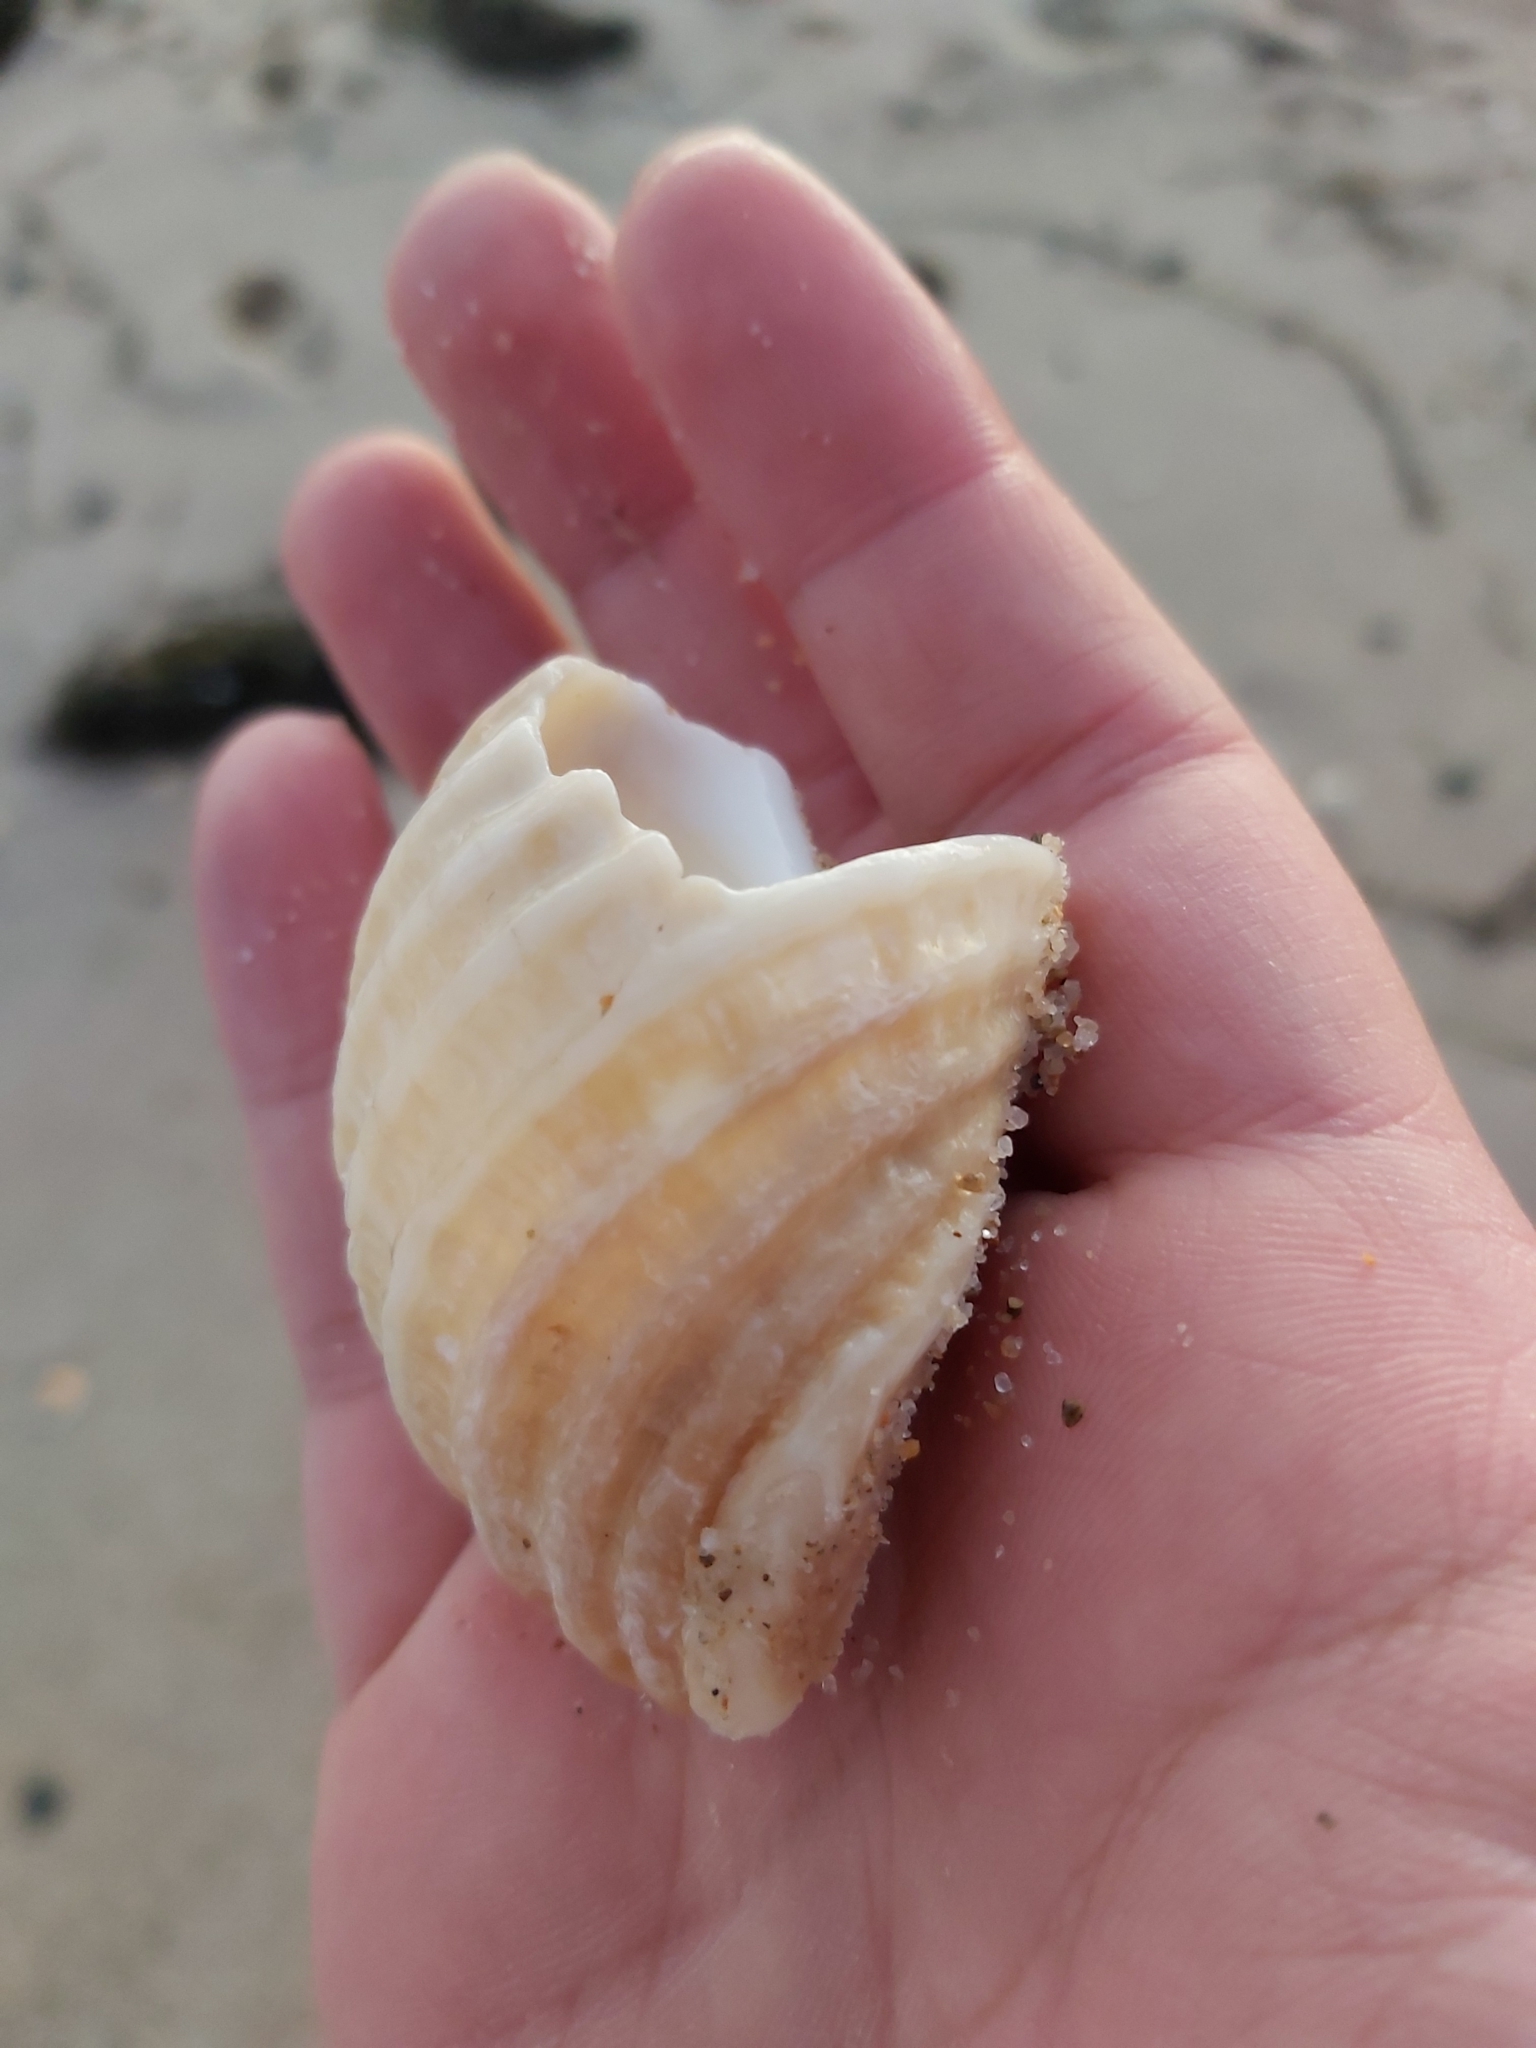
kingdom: Animalia
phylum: Mollusca
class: Gastropoda
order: Neogastropoda
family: Muricidae
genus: Dicathais
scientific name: Dicathais orbita
